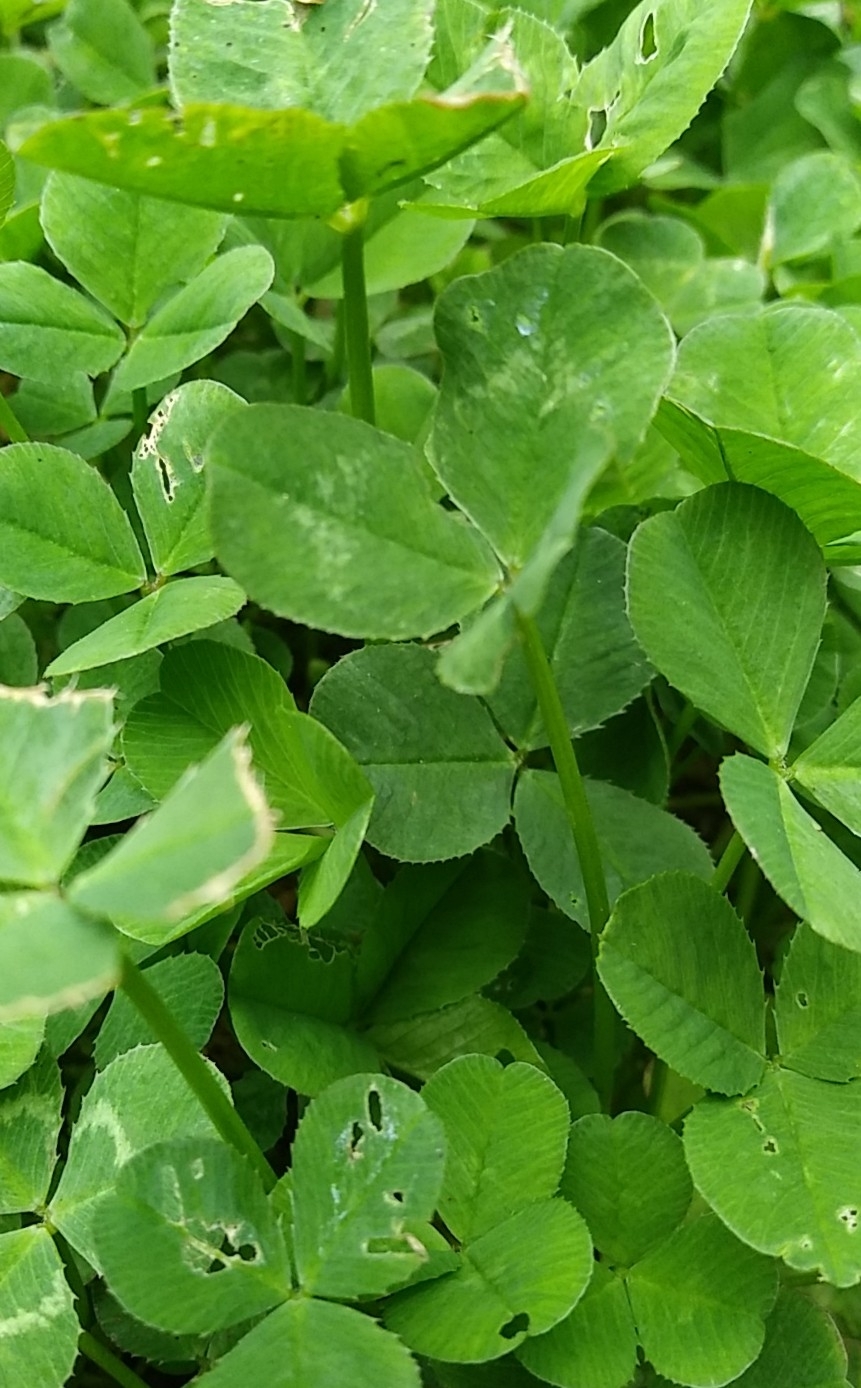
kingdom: Plantae
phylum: Tracheophyta
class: Magnoliopsida
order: Fabales
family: Fabaceae
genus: Trifolium
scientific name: Trifolium repens
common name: White clover
